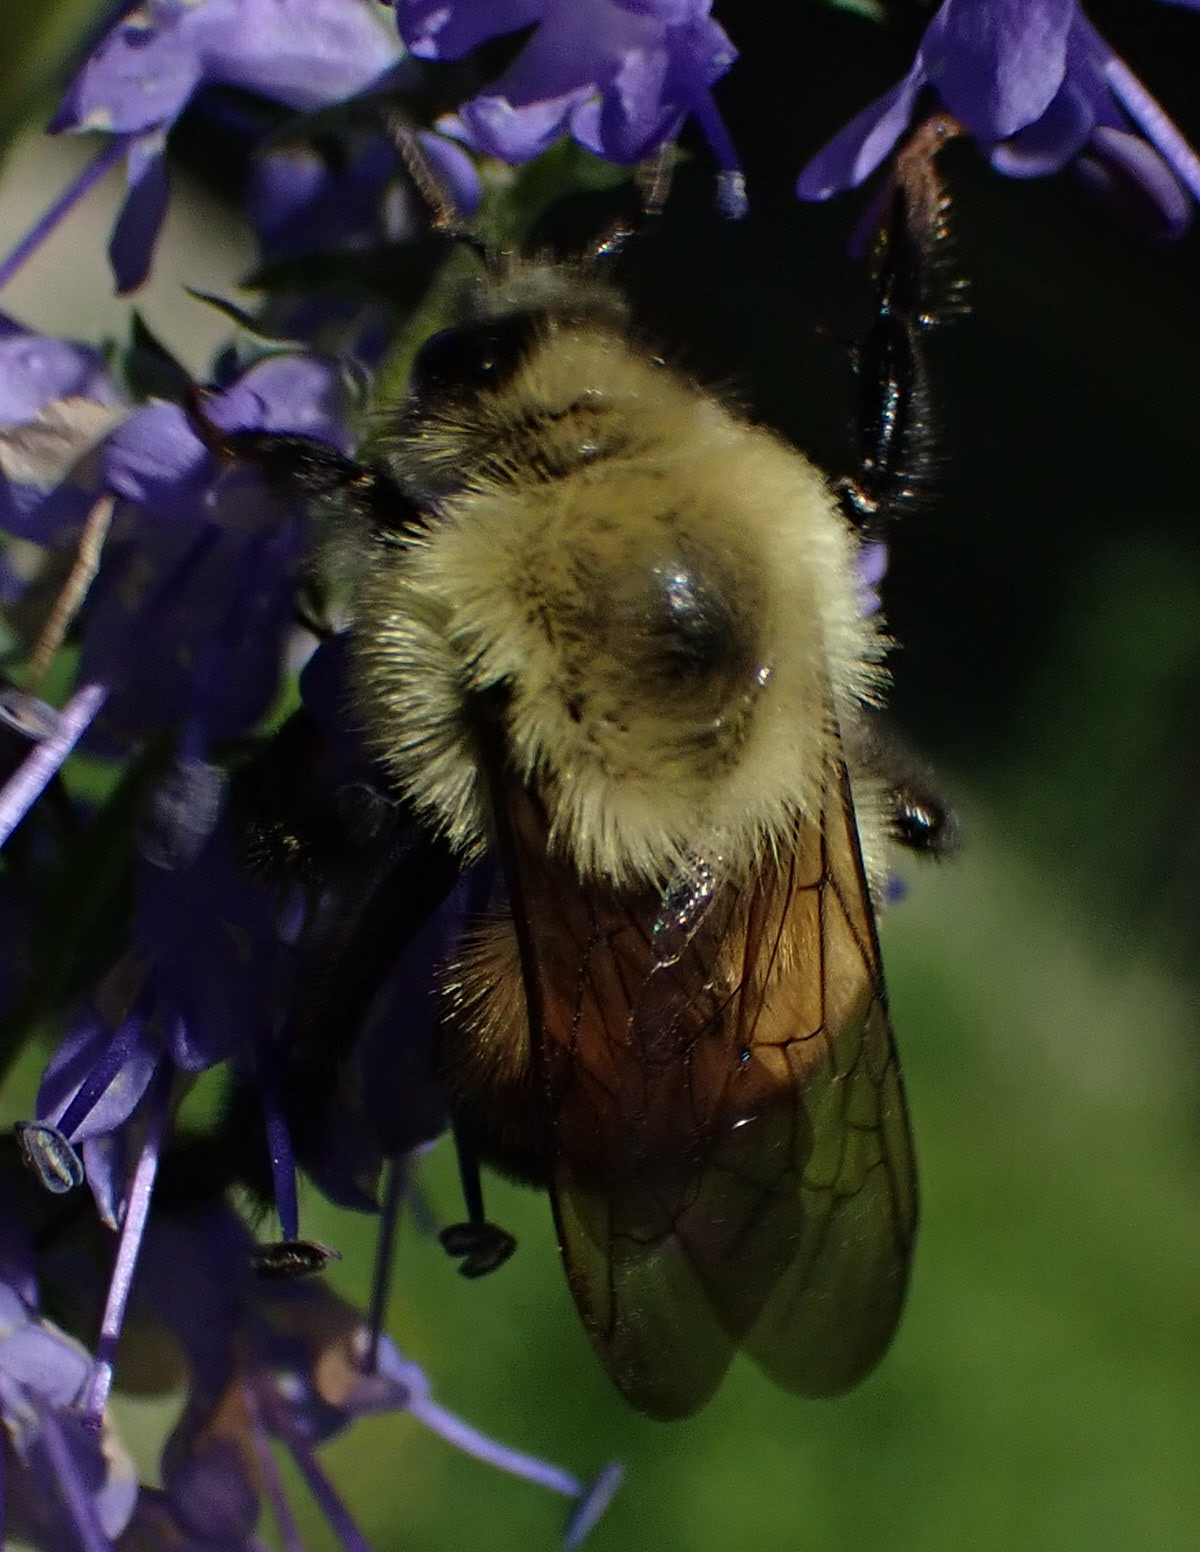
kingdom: Animalia
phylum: Arthropoda
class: Insecta
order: Hymenoptera
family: Apidae
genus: Pyrobombus
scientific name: Pyrobombus
